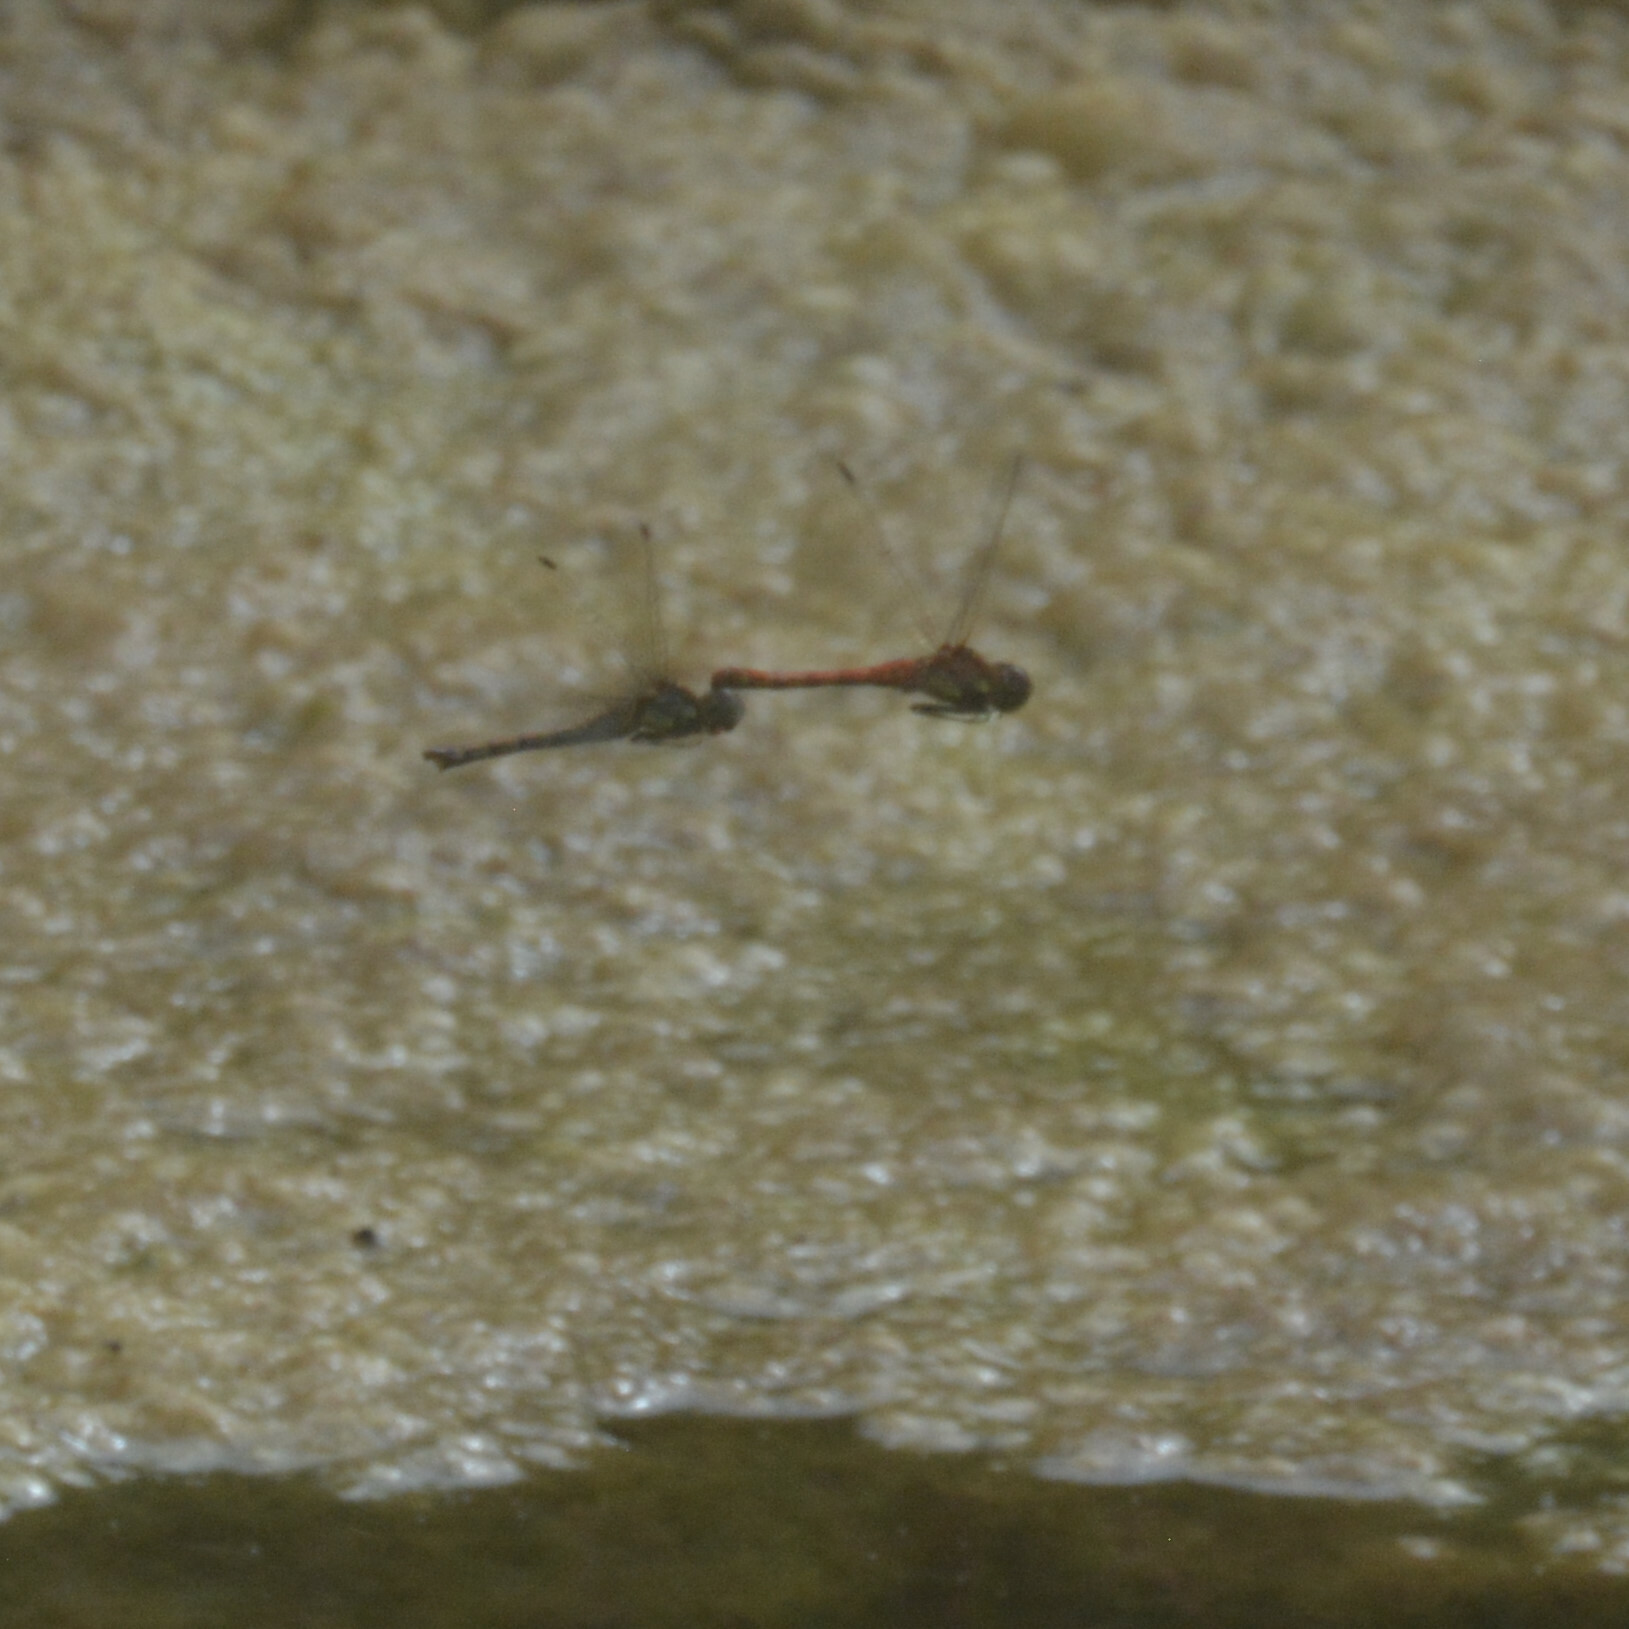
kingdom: Animalia
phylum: Arthropoda
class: Insecta
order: Odonata
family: Libellulidae
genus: Sympetrum
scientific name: Sympetrum striolatum
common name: Common darter
